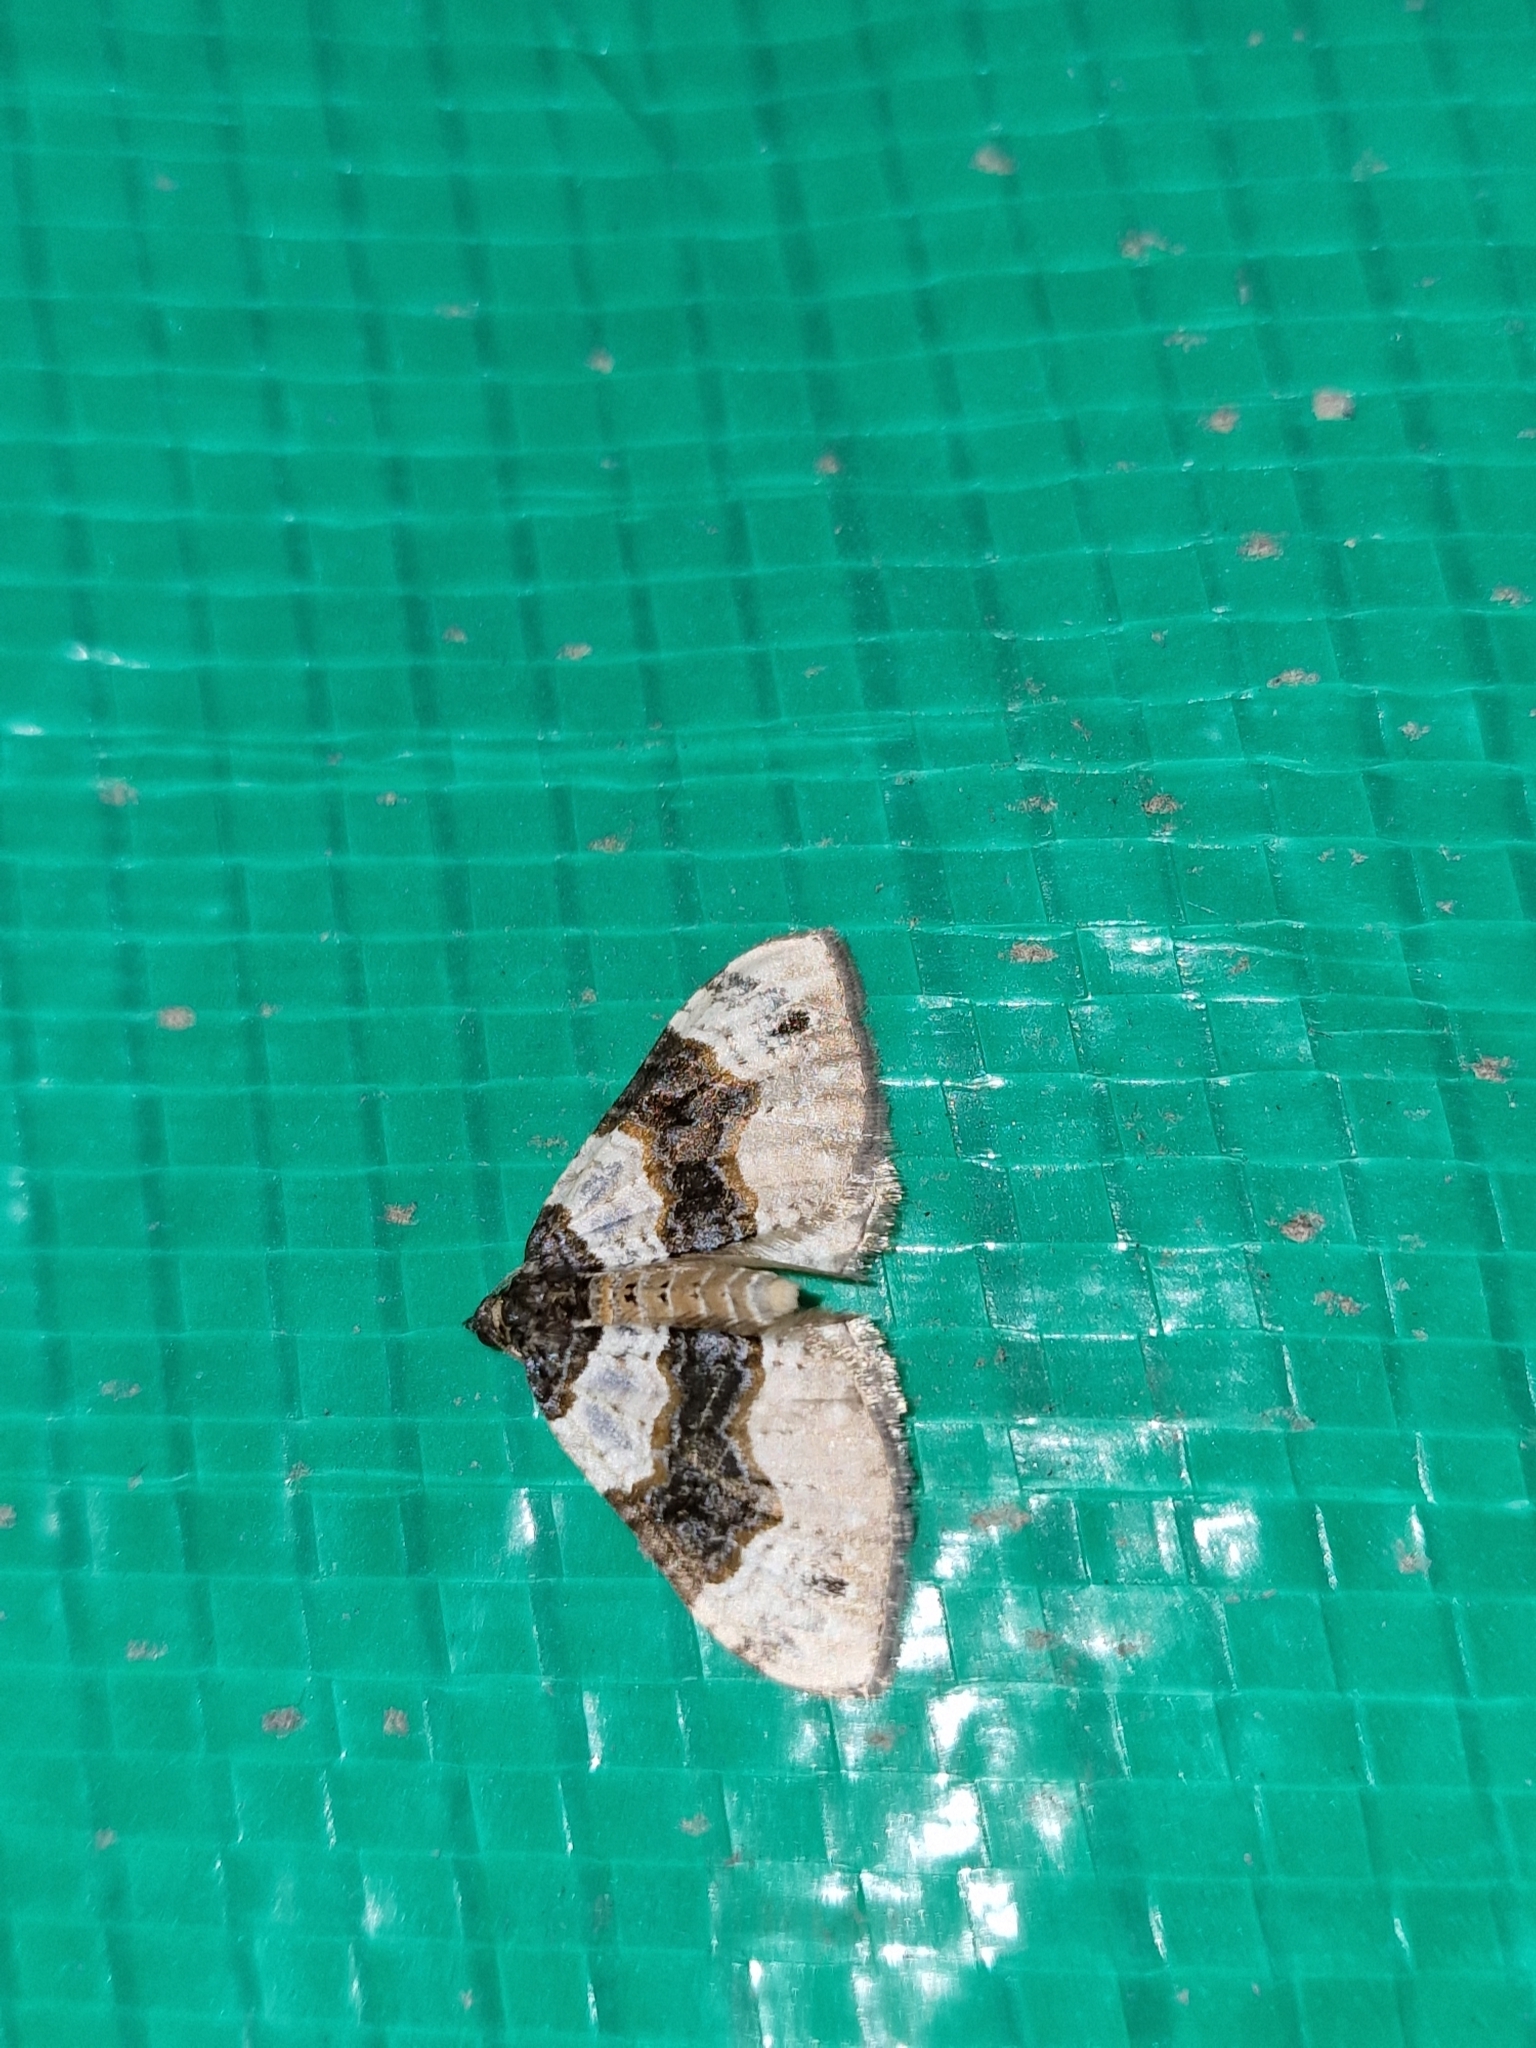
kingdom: Animalia
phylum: Arthropoda
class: Insecta
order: Lepidoptera
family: Geometridae
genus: Cosmorhoe
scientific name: Cosmorhoe ocellata
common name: Purple bar
